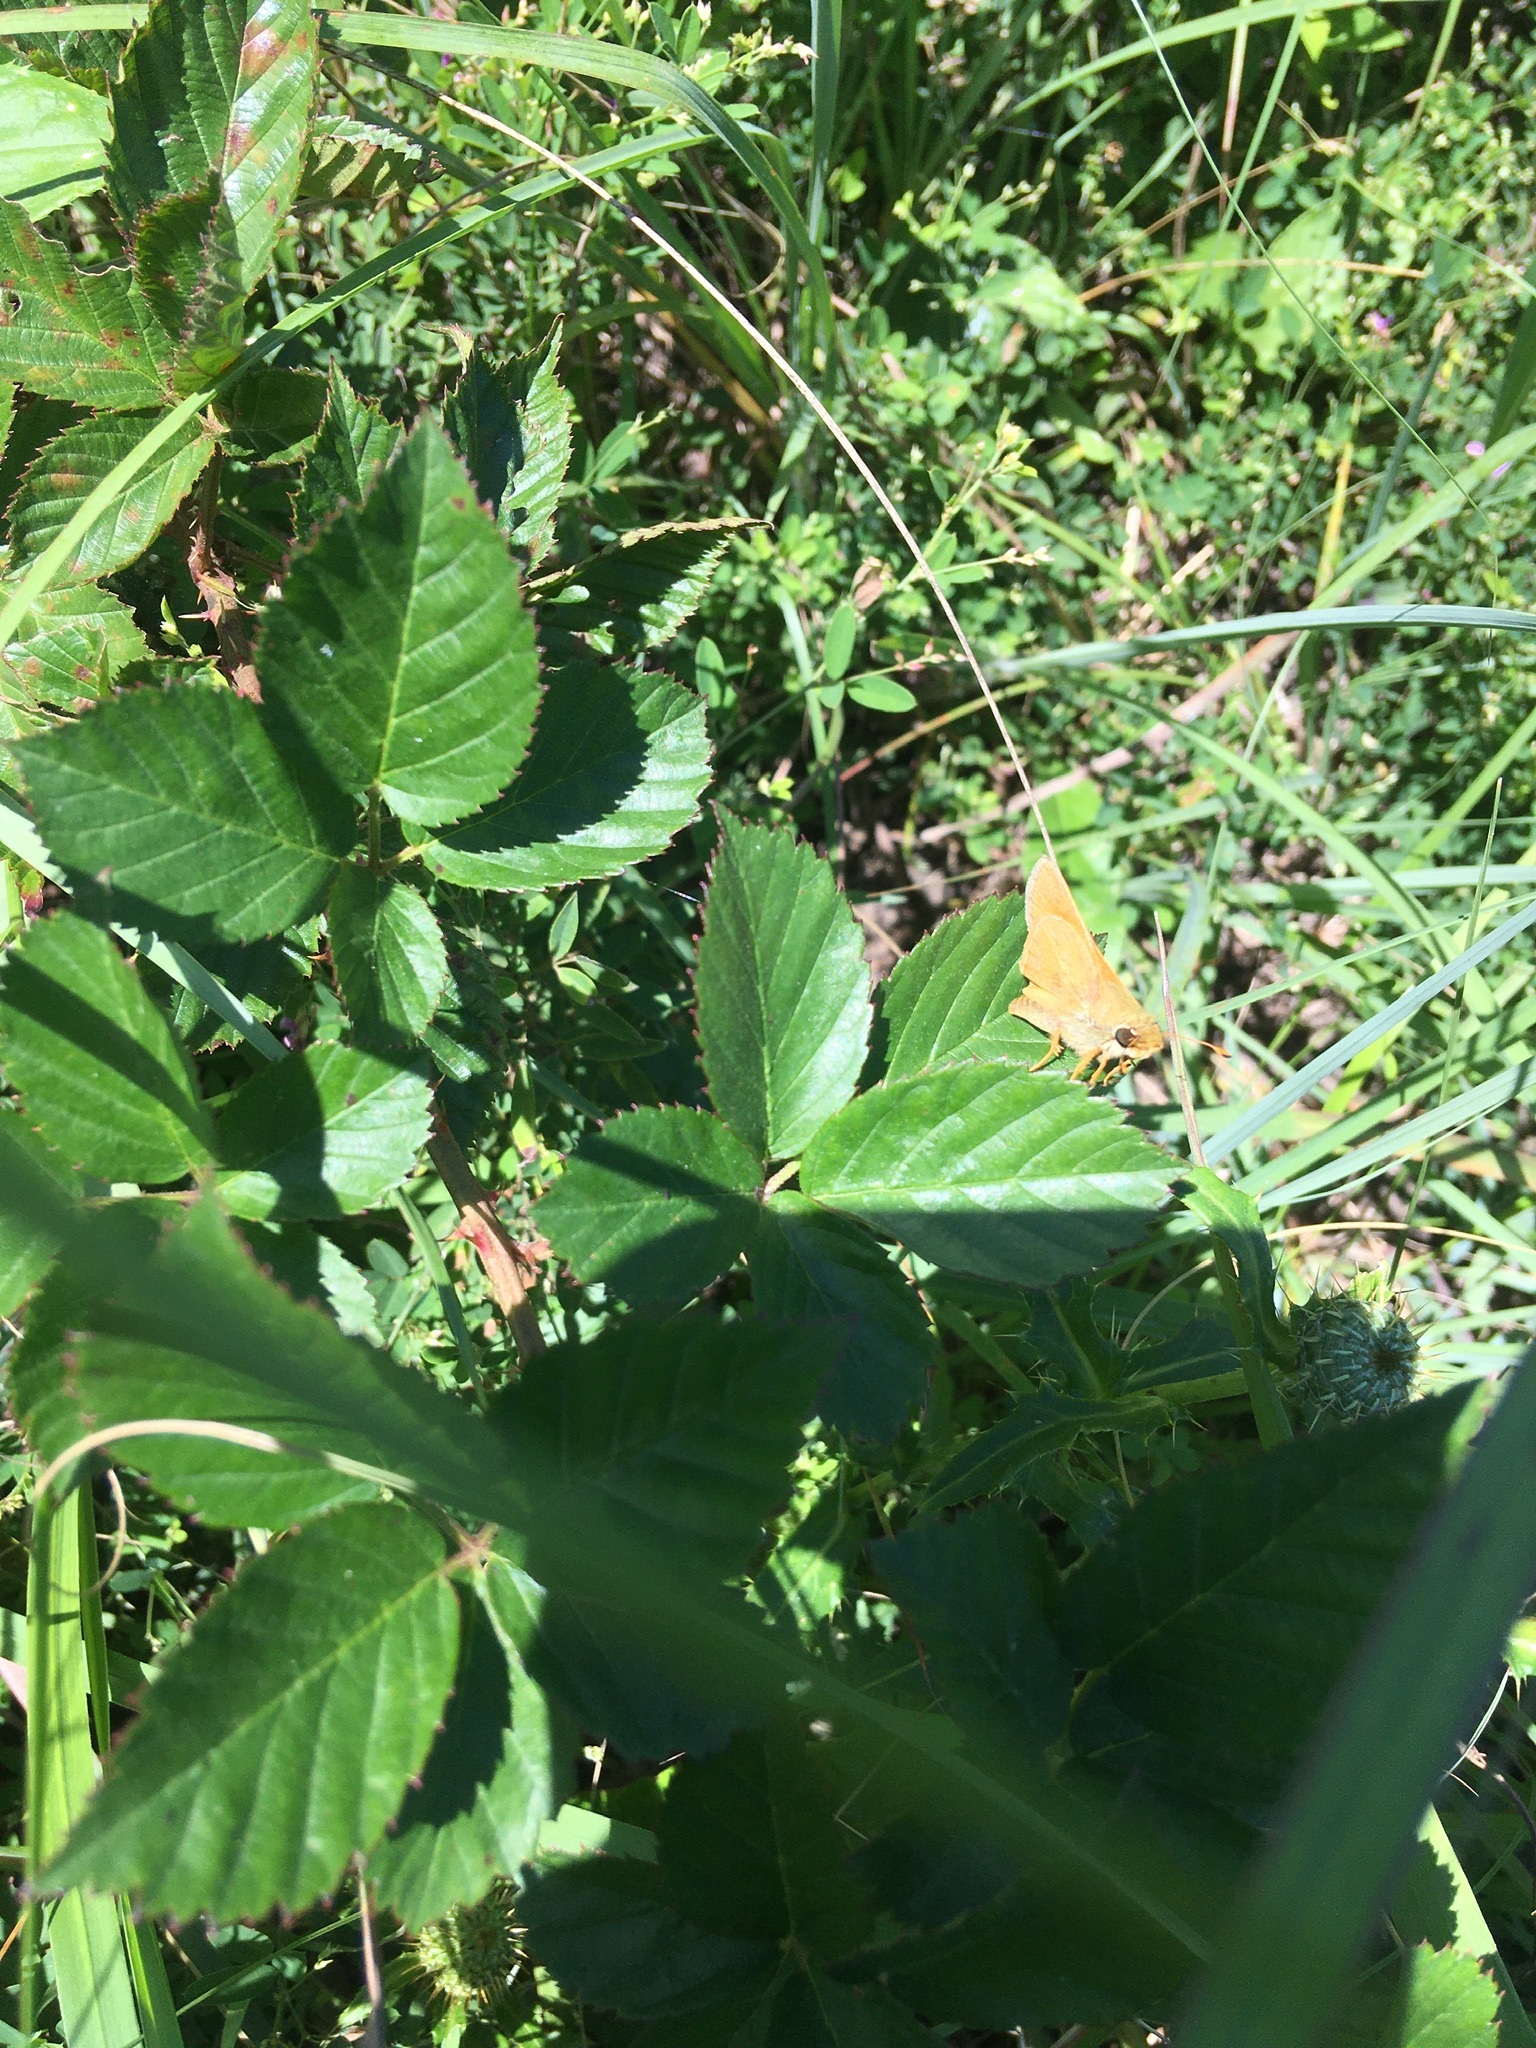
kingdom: Animalia
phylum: Arthropoda
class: Insecta
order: Lepidoptera
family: Hesperiidae
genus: Atalopedes
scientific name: Atalopedes
